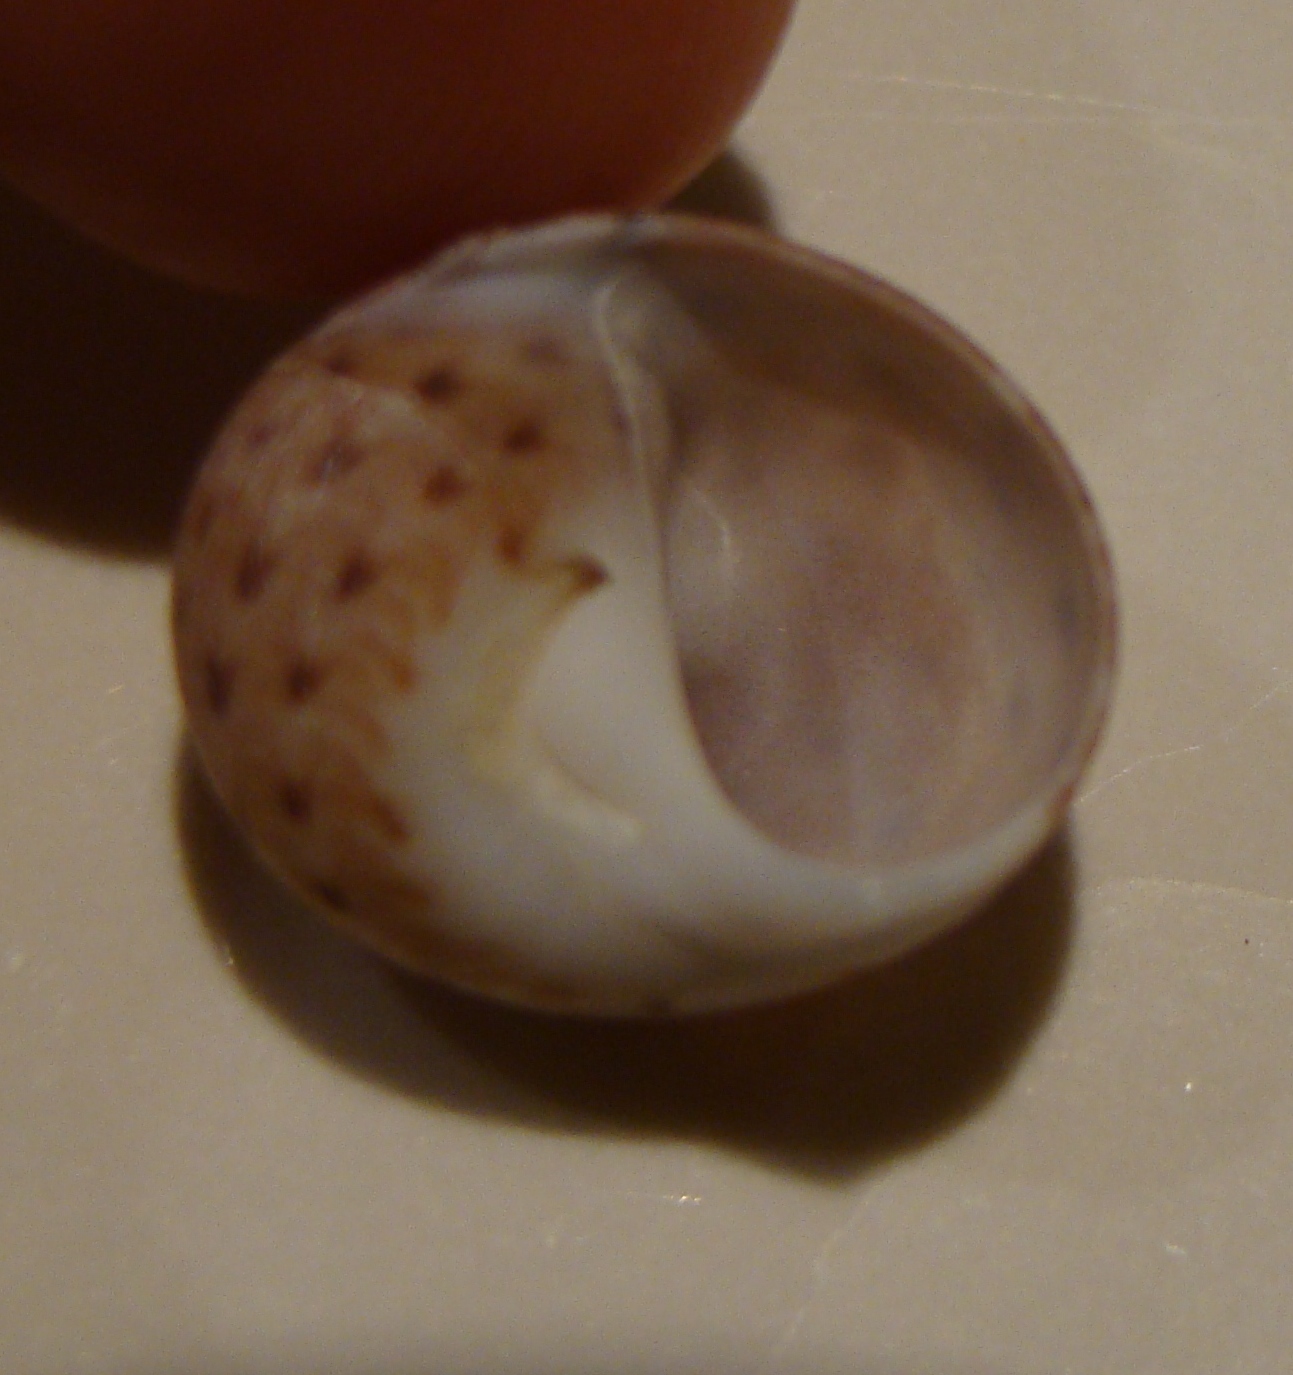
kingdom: Animalia
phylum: Mollusca
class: Gastropoda
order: Littorinimorpha
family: Naticidae
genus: Tanea
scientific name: Tanea zelandica
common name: New zealand moonsnail
